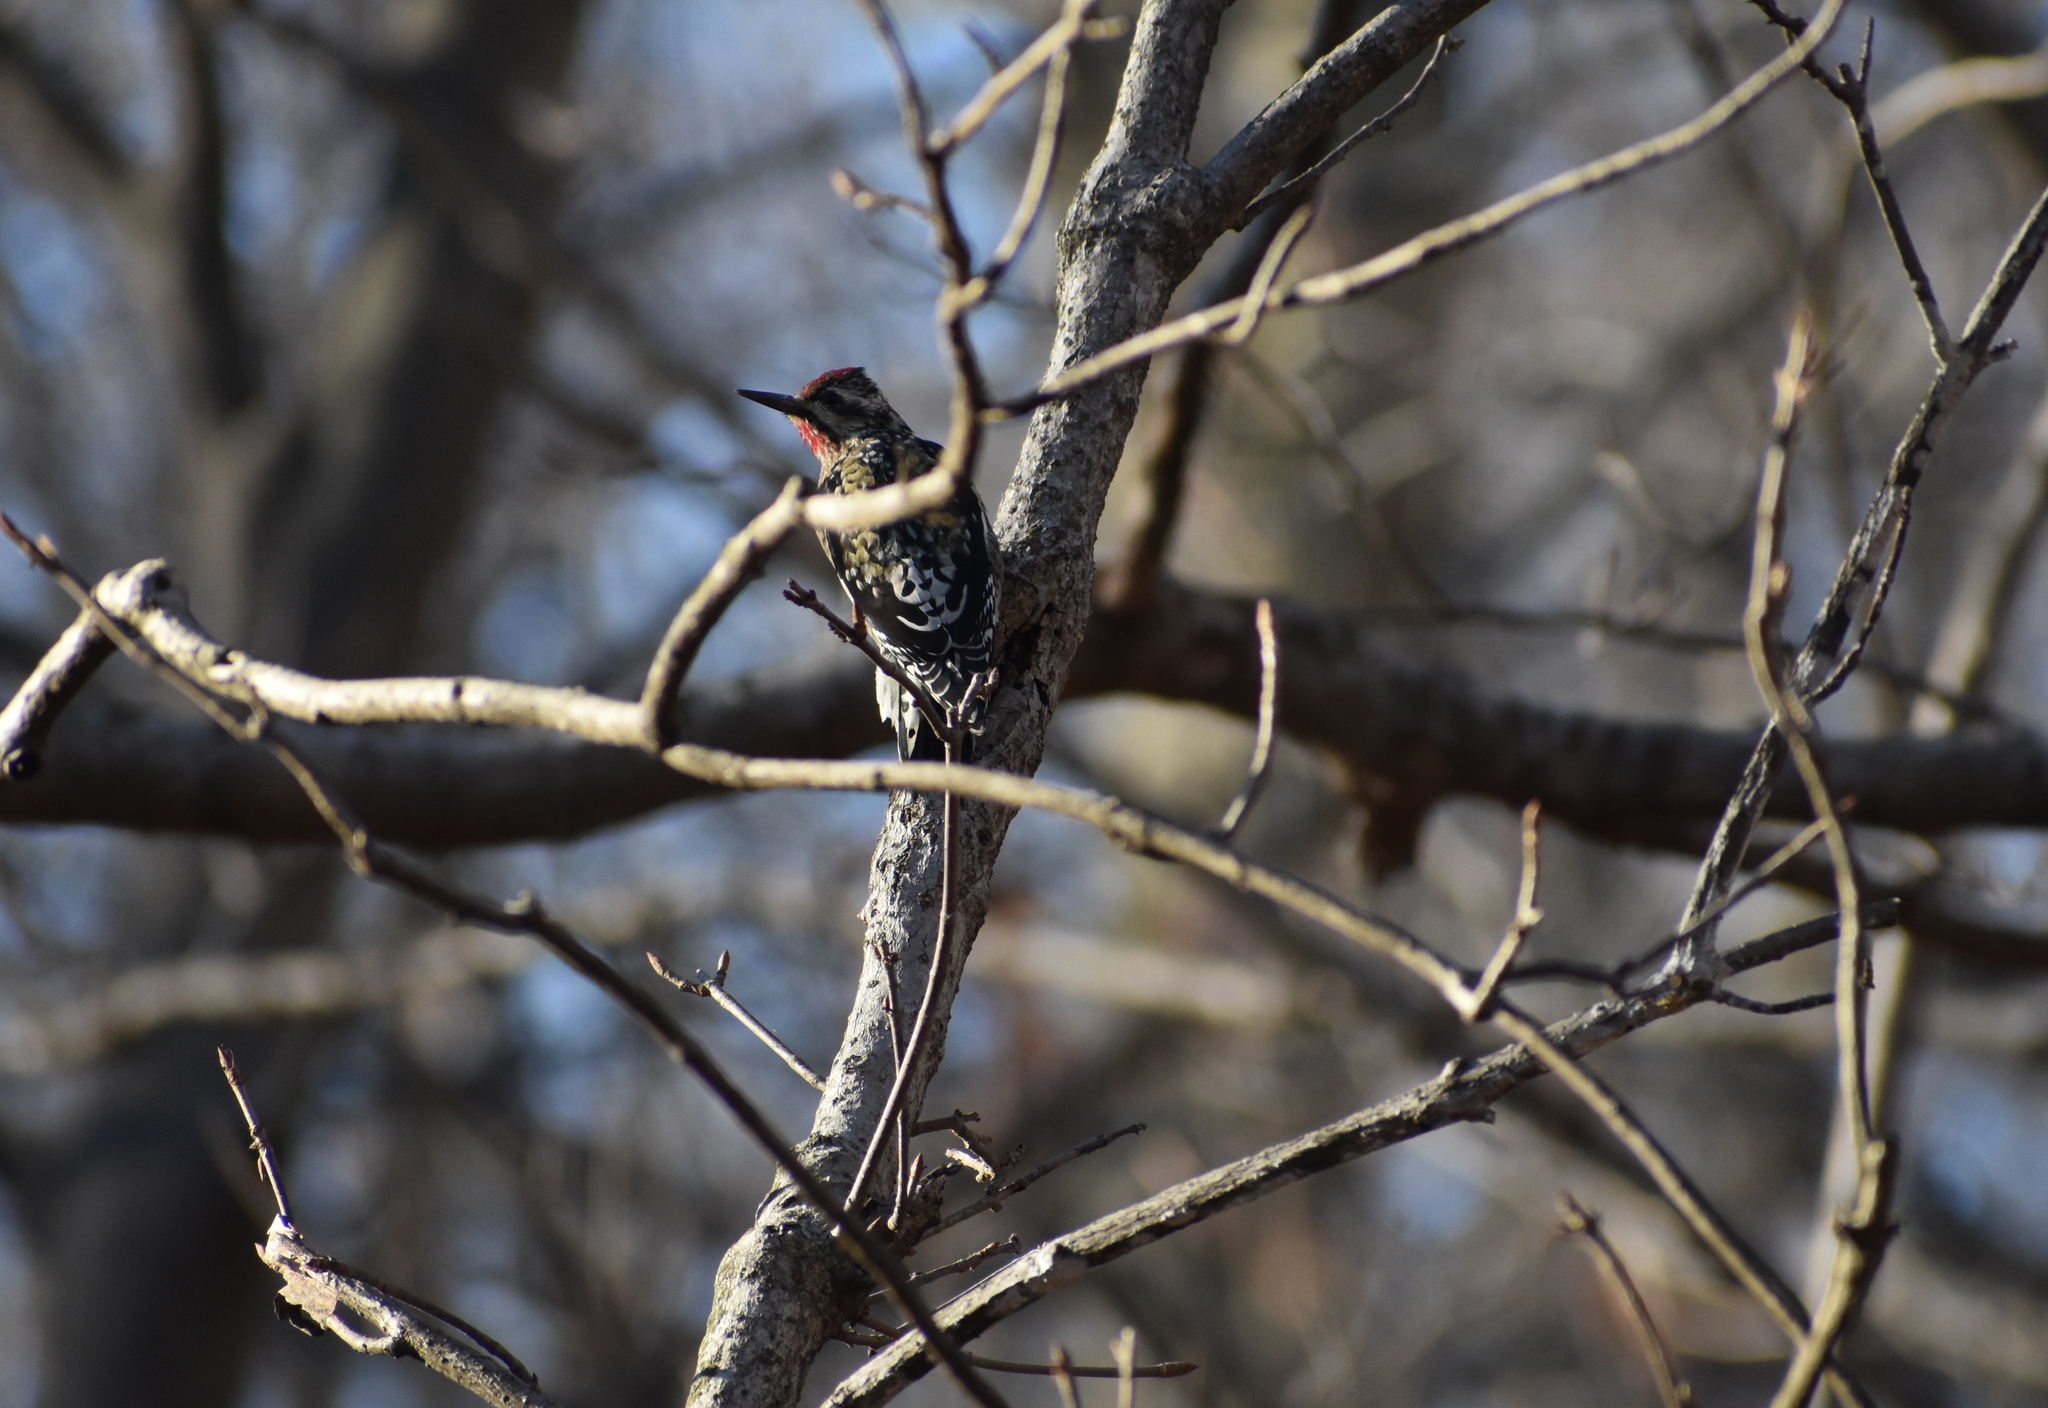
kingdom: Animalia
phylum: Chordata
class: Aves
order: Piciformes
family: Picidae
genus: Sphyrapicus
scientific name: Sphyrapicus varius
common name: Yellow-bellied sapsucker
